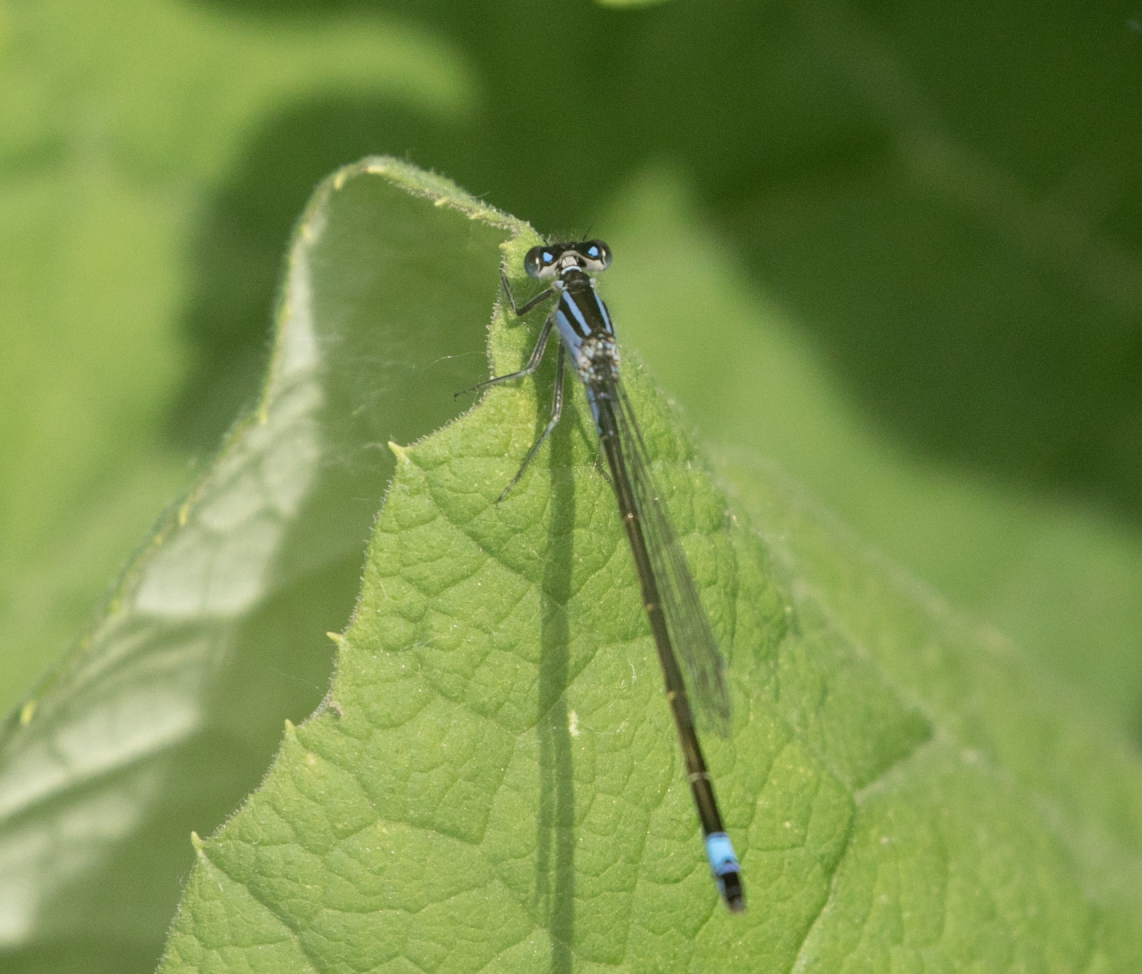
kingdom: Animalia
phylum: Arthropoda
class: Insecta
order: Odonata
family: Coenagrionidae
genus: Ischnura
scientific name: Ischnura elegans
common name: Blue-tailed damselfly
